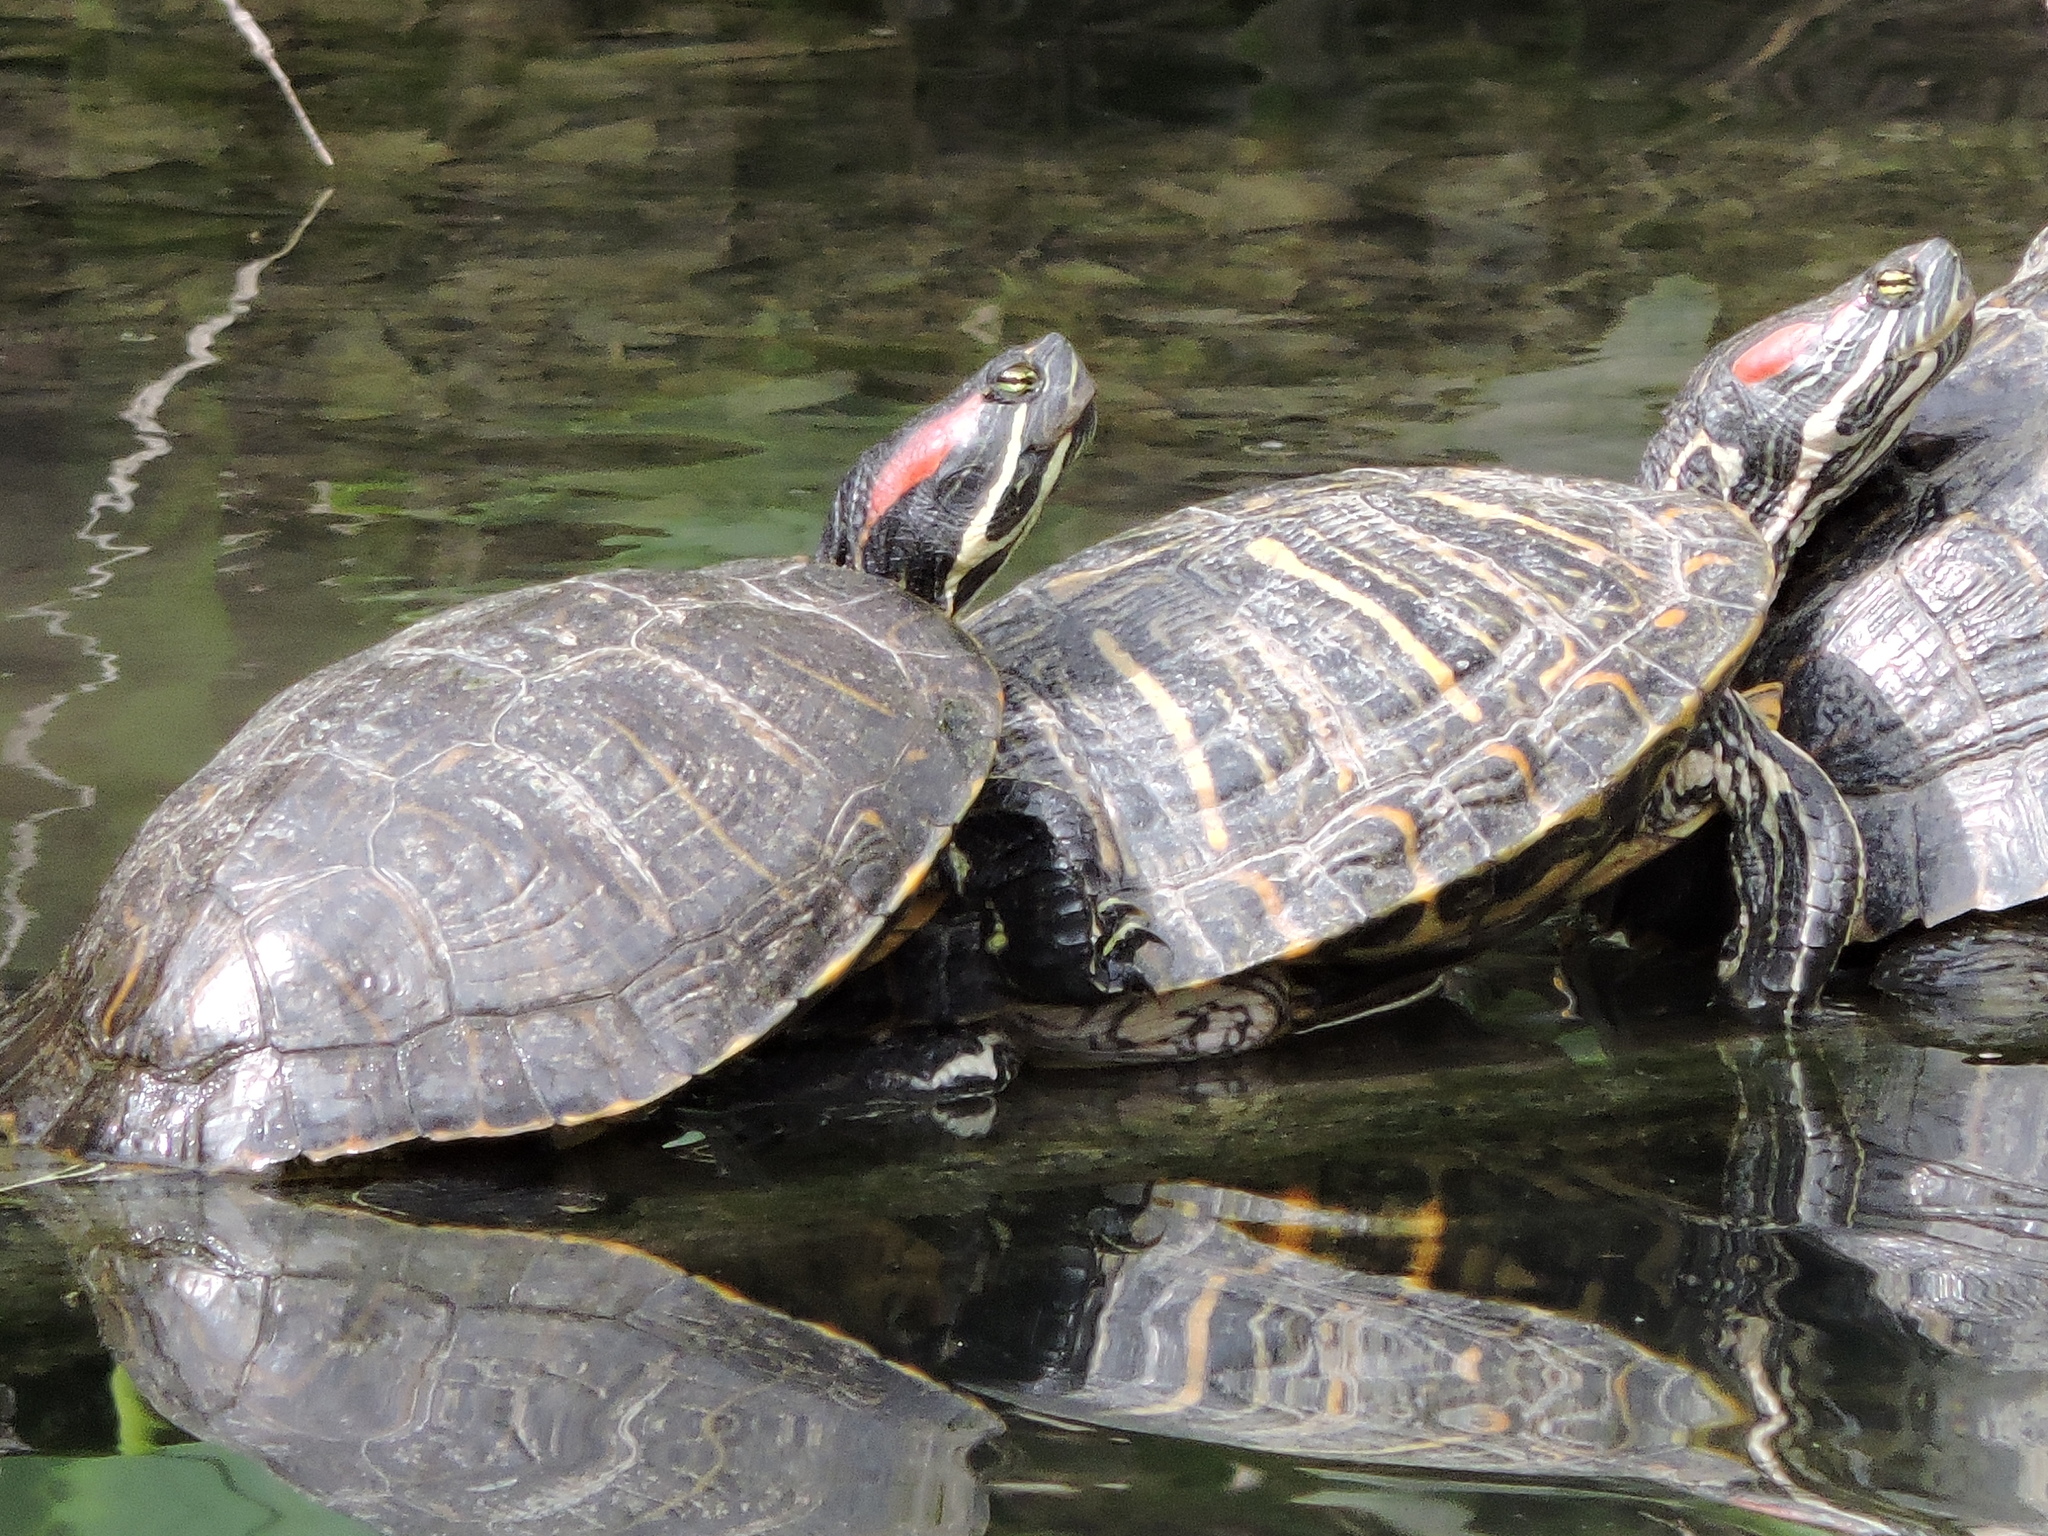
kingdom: Animalia
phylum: Chordata
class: Testudines
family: Emydidae
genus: Trachemys
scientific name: Trachemys scripta
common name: Slider
